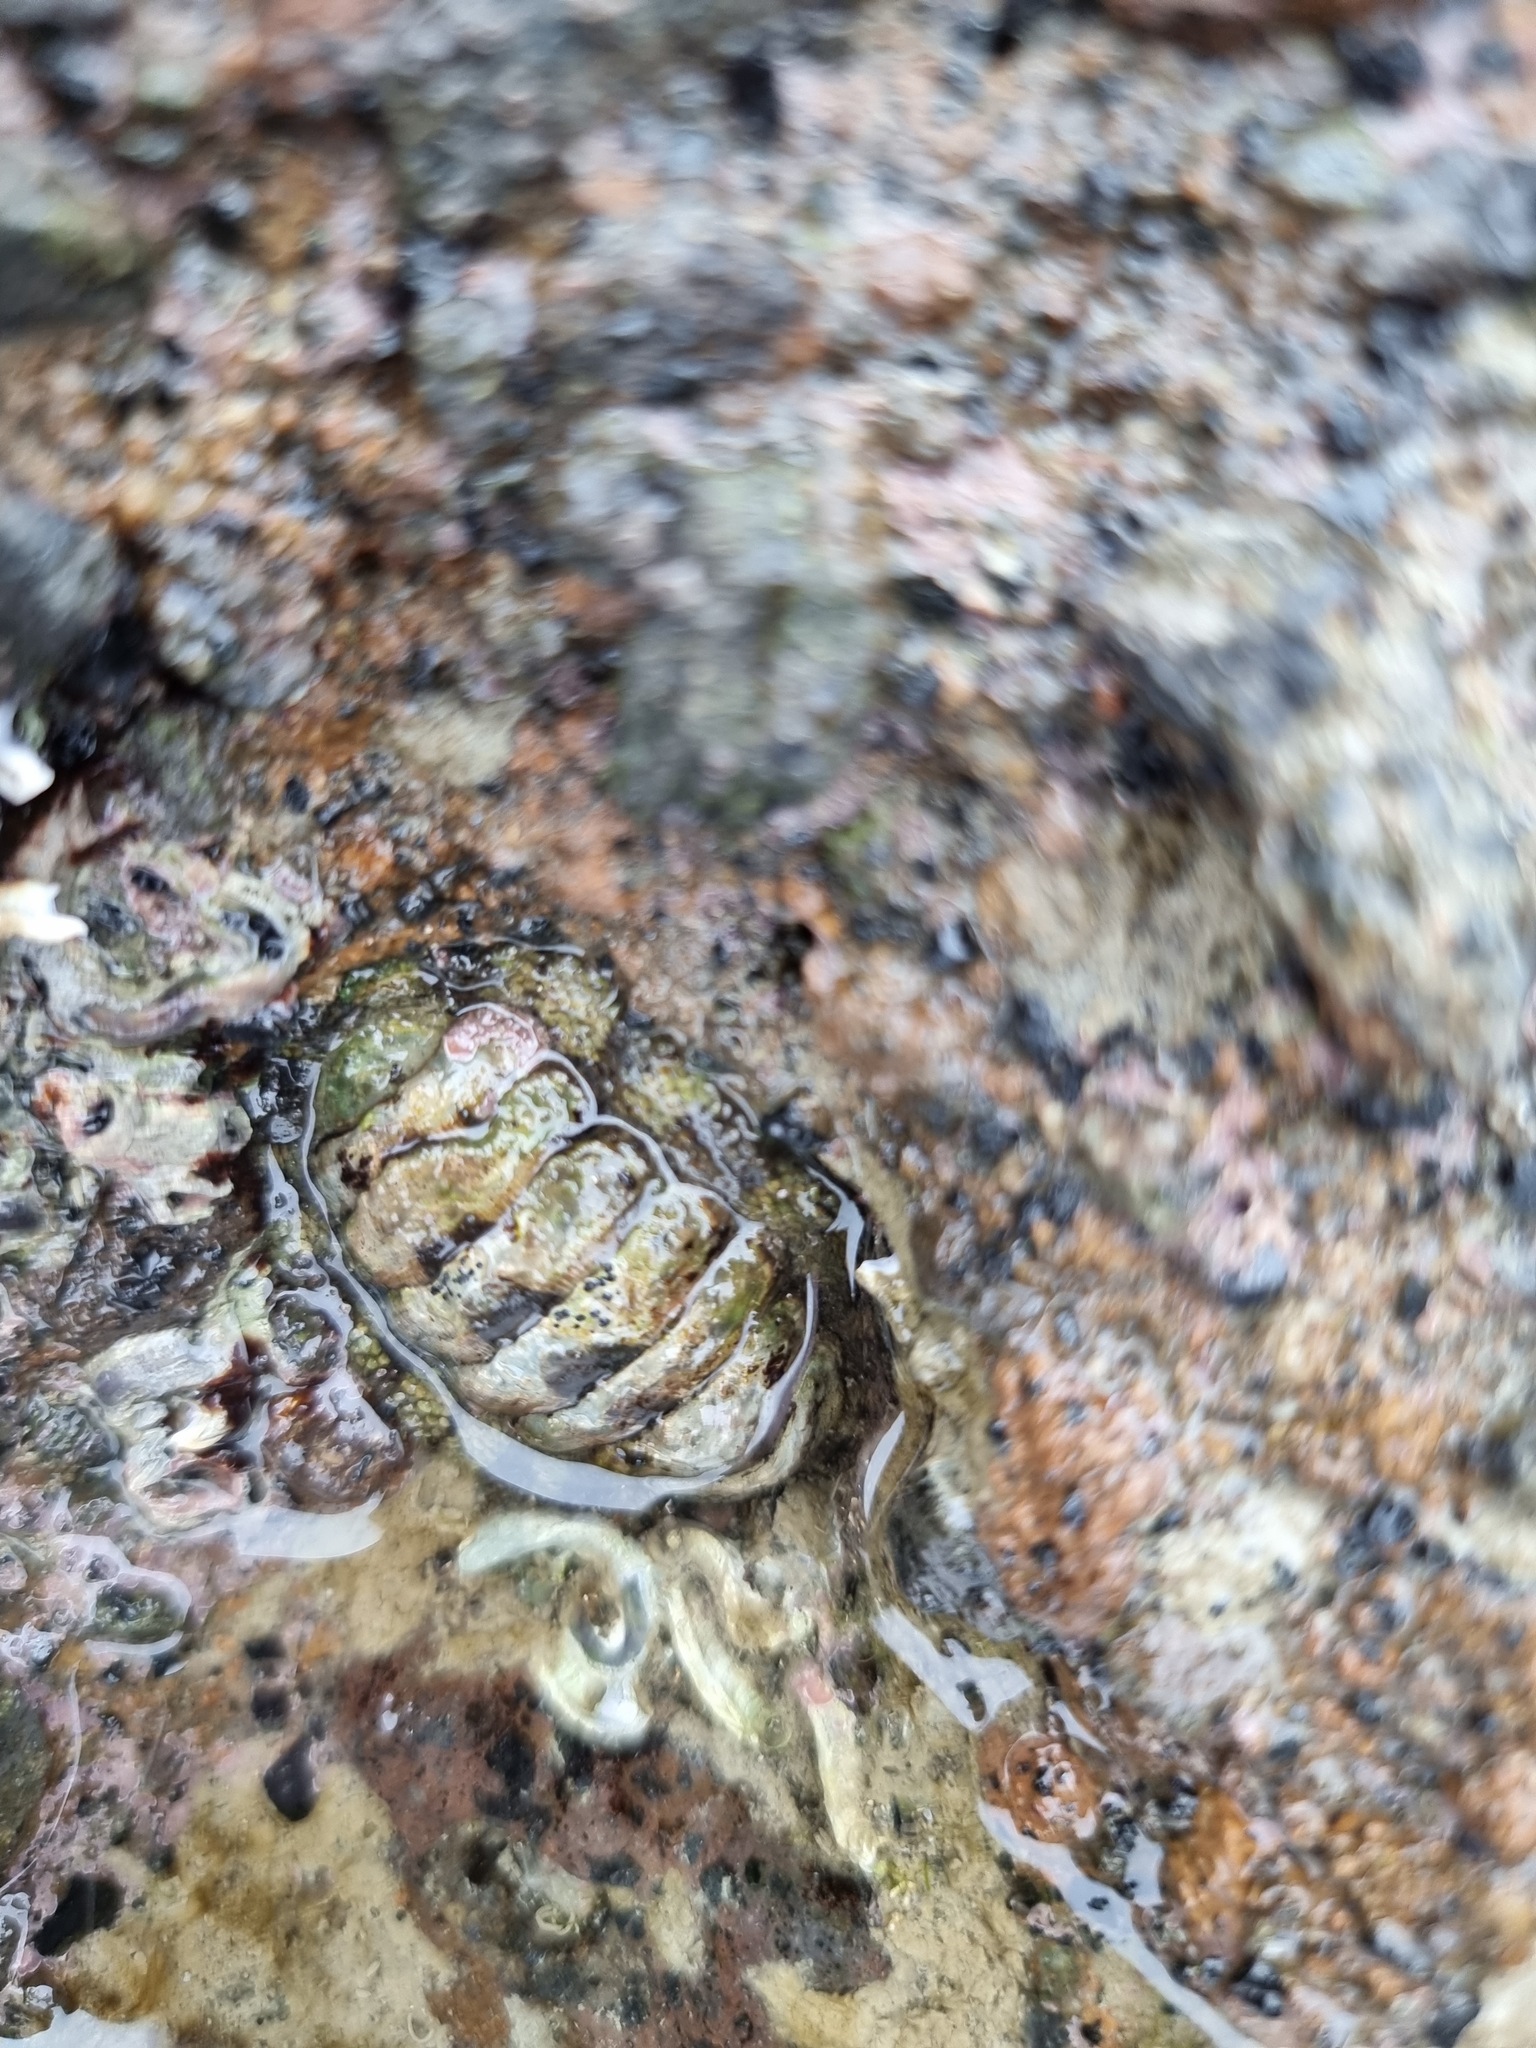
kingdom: Animalia
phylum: Mollusca
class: Polyplacophora
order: Chitonida
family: Chitonidae
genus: Sypharochiton
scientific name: Sypharochiton pelliserpentis
